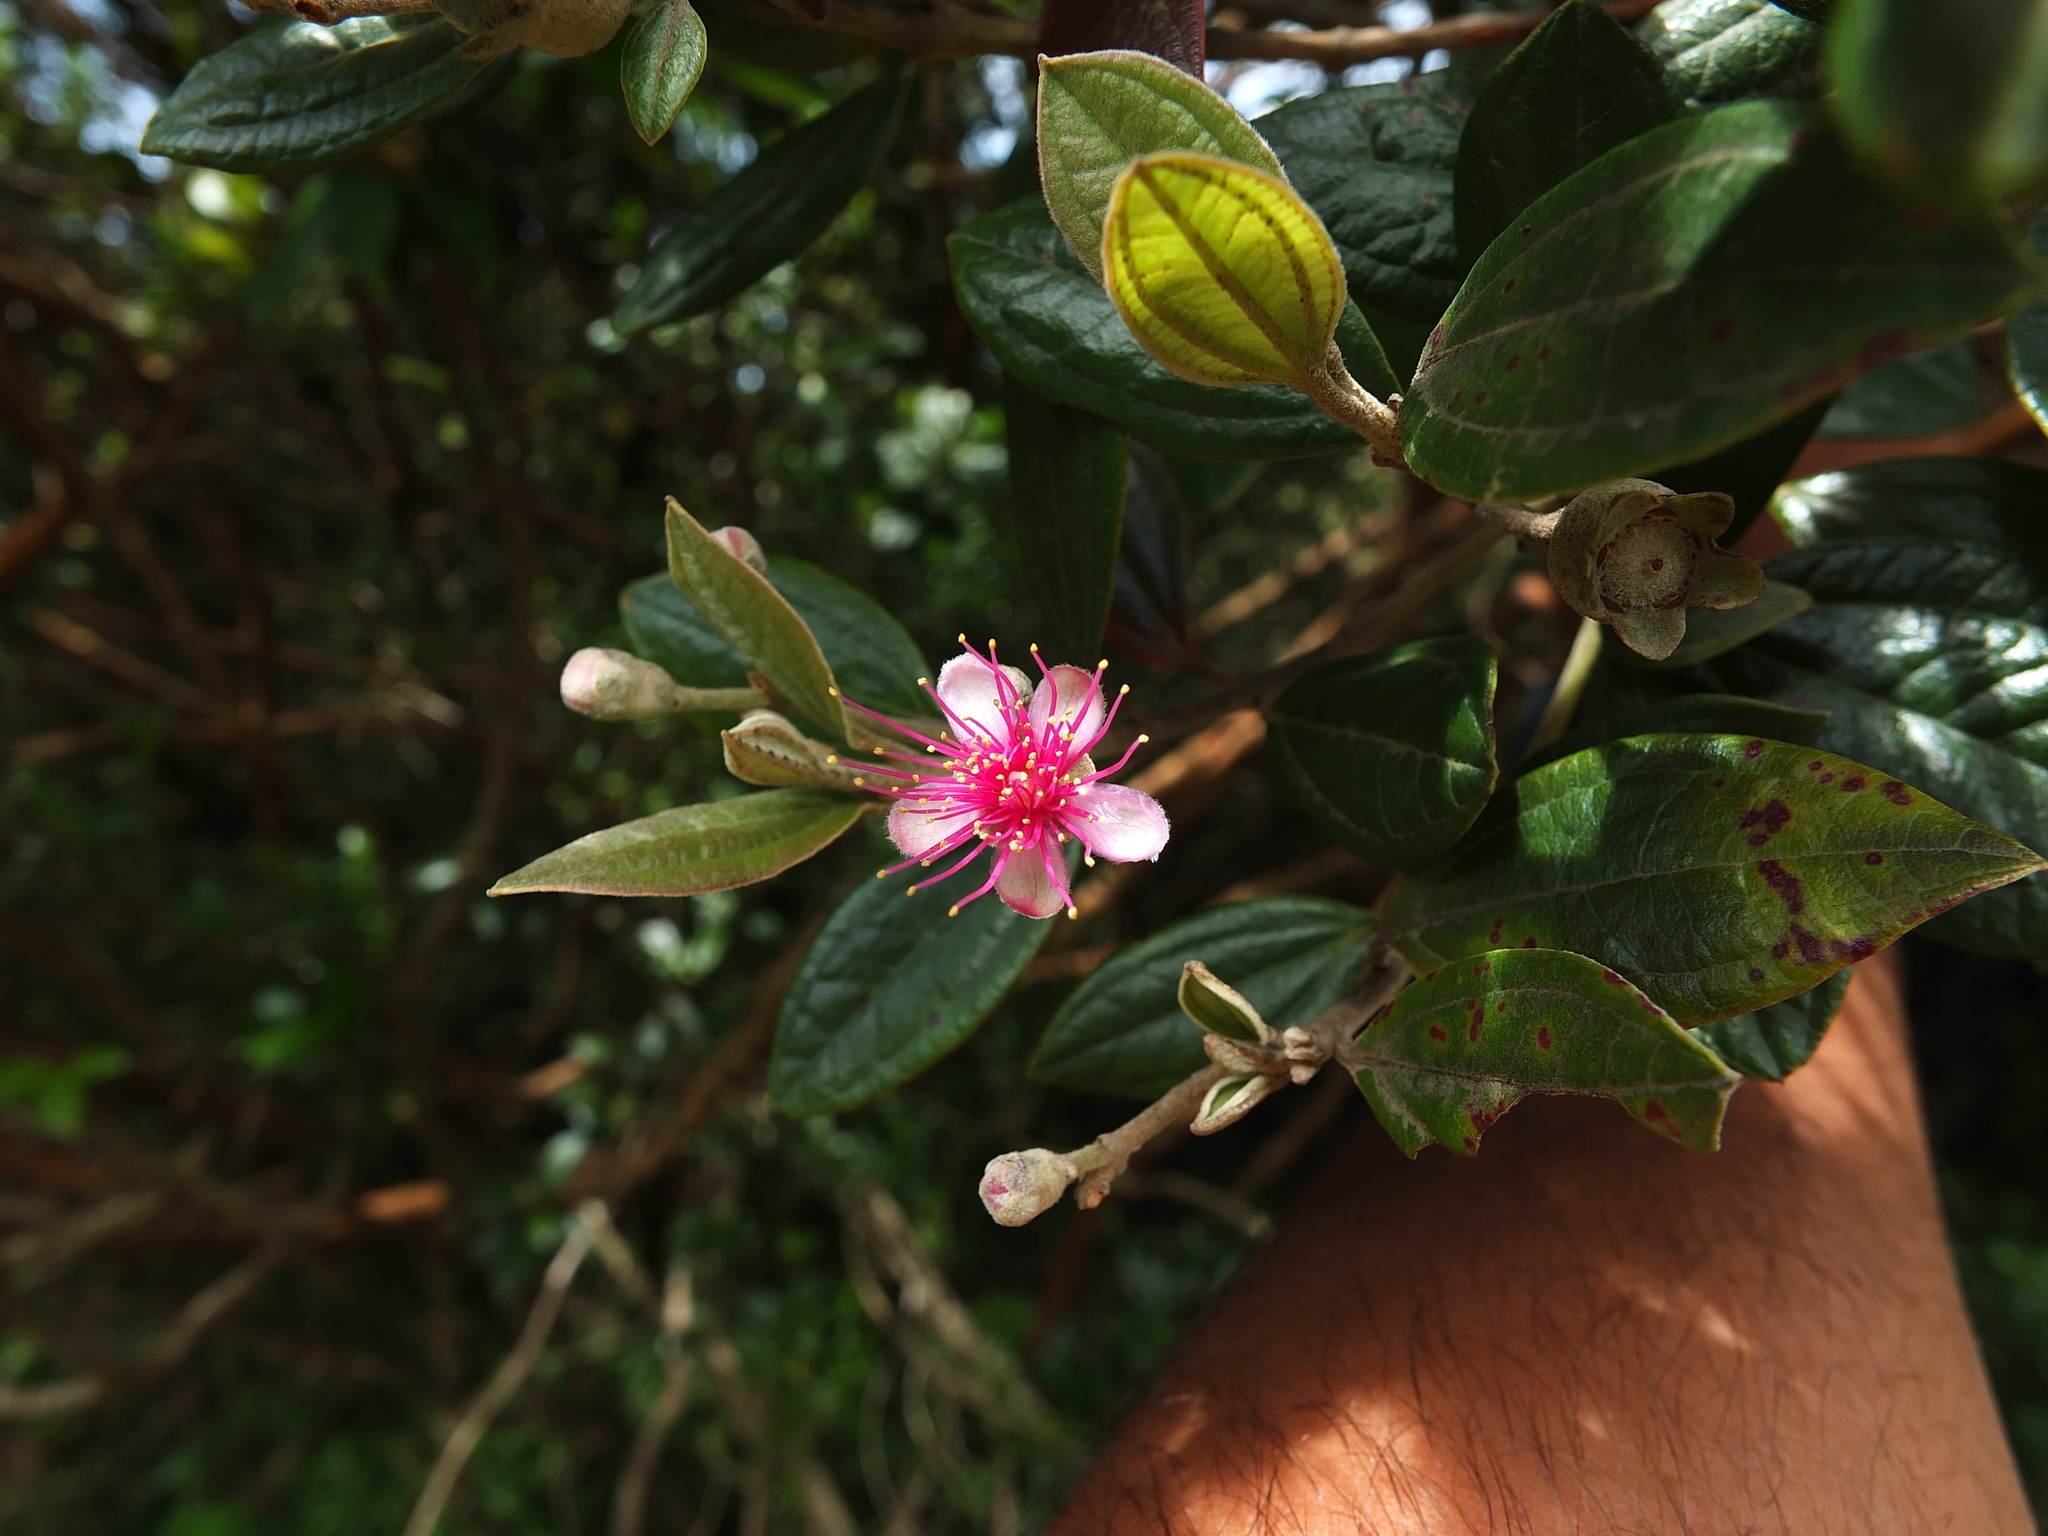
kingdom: Plantae
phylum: Tracheophyta
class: Magnoliopsida
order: Myrtales
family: Myrtaceae
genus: Rhodomyrtus
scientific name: Rhodomyrtus tomentosa
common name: Rose myrtle
